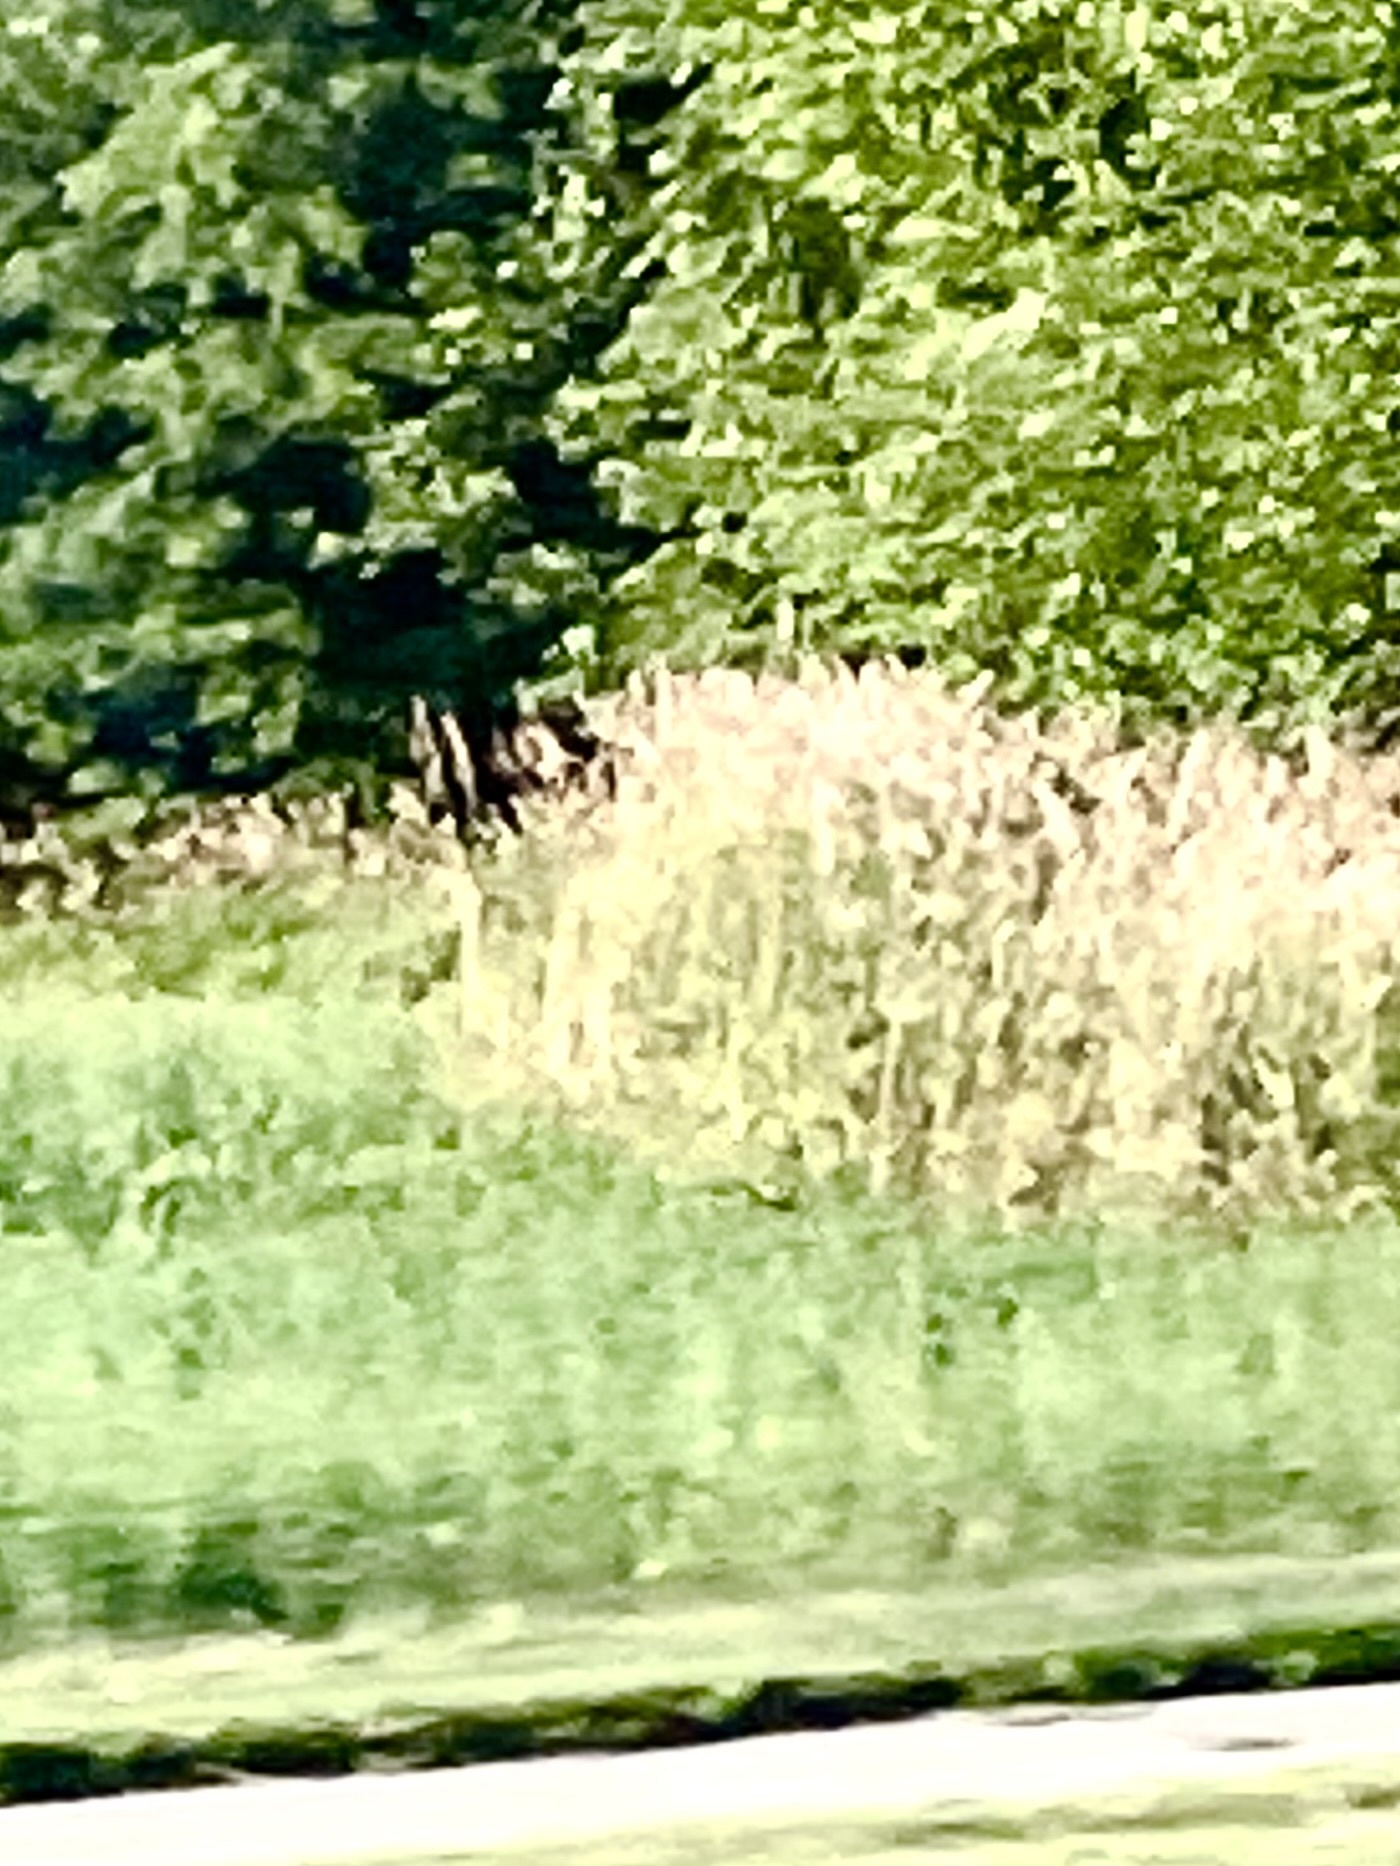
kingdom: Plantae
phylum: Tracheophyta
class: Liliopsida
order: Poales
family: Poaceae
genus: Phragmites
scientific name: Phragmites australis
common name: Common reed
